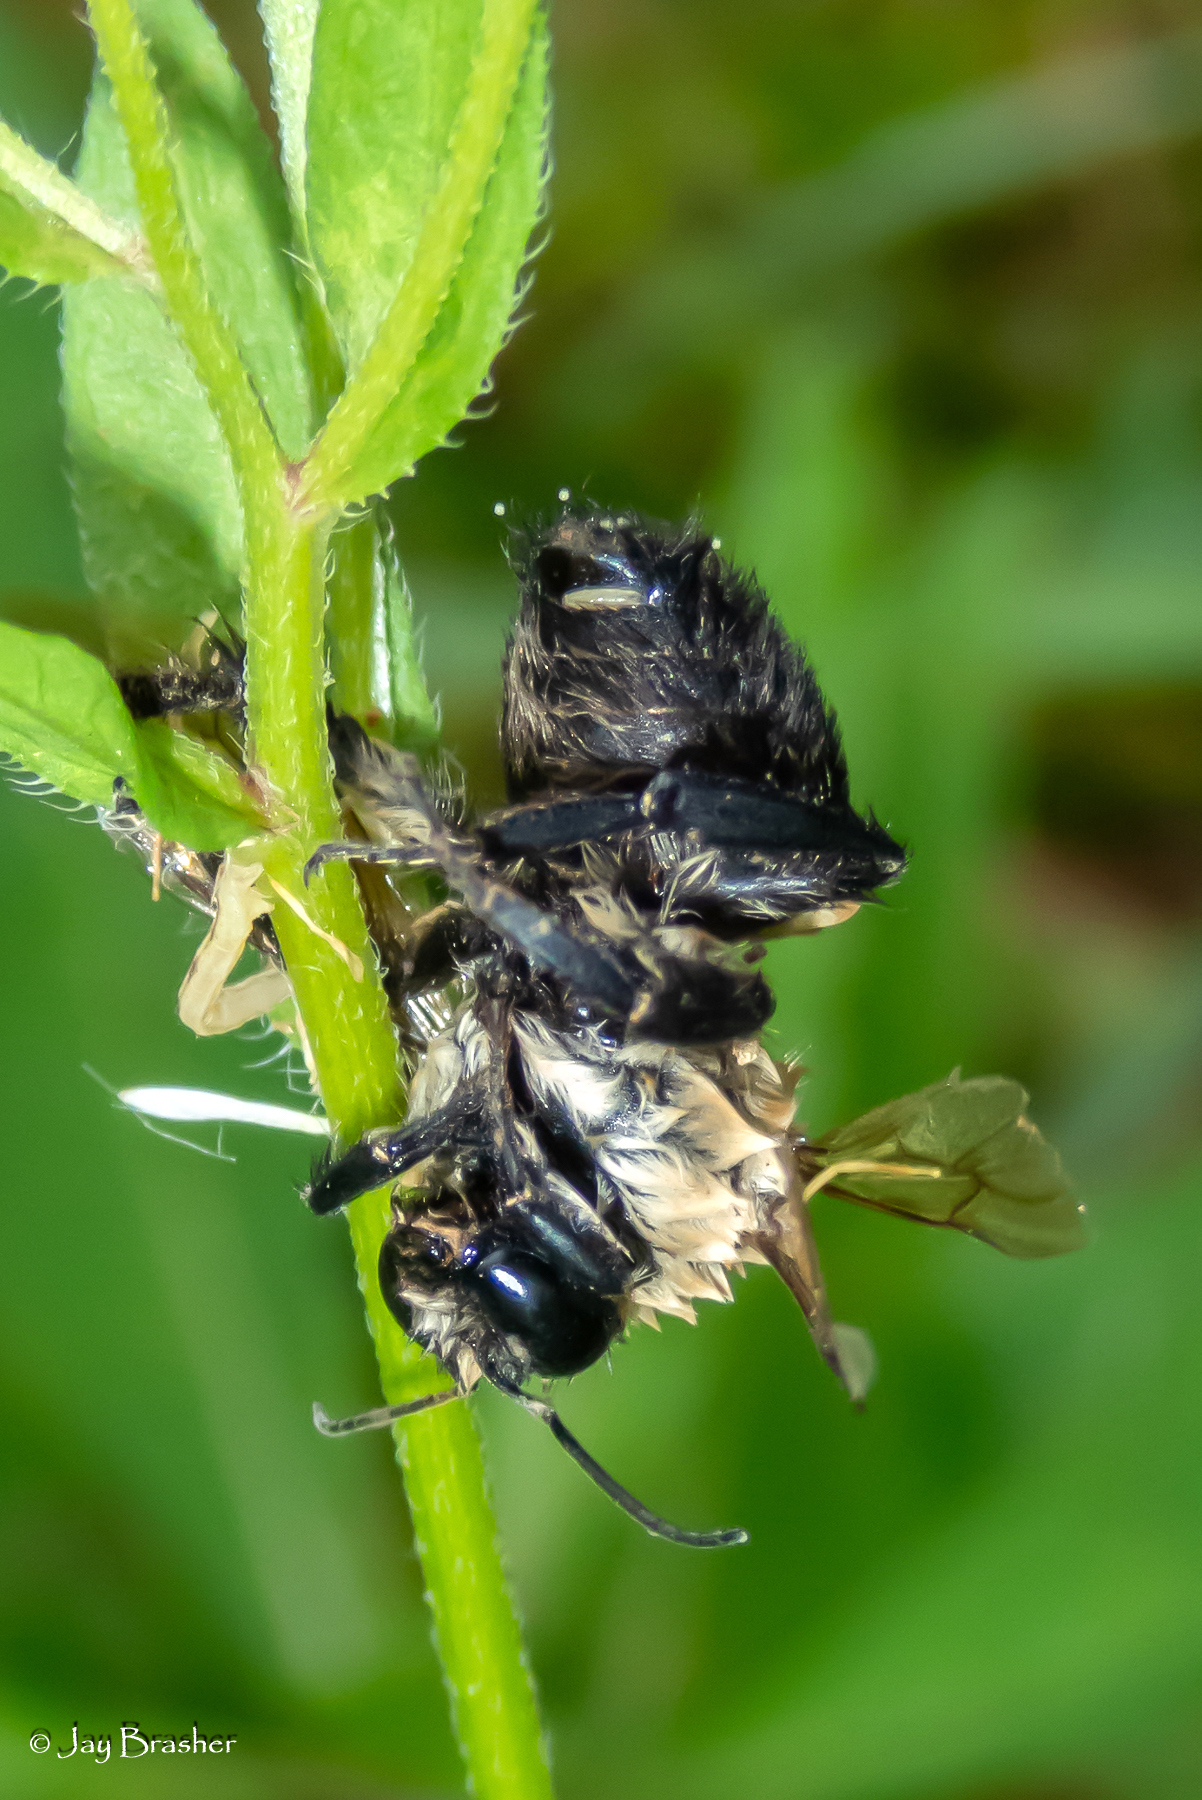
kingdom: Animalia
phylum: Arthropoda
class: Insecta
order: Hymenoptera
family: Apidae
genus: Bombus
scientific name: Bombus griseocollis
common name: Brown-belted bumble bee
